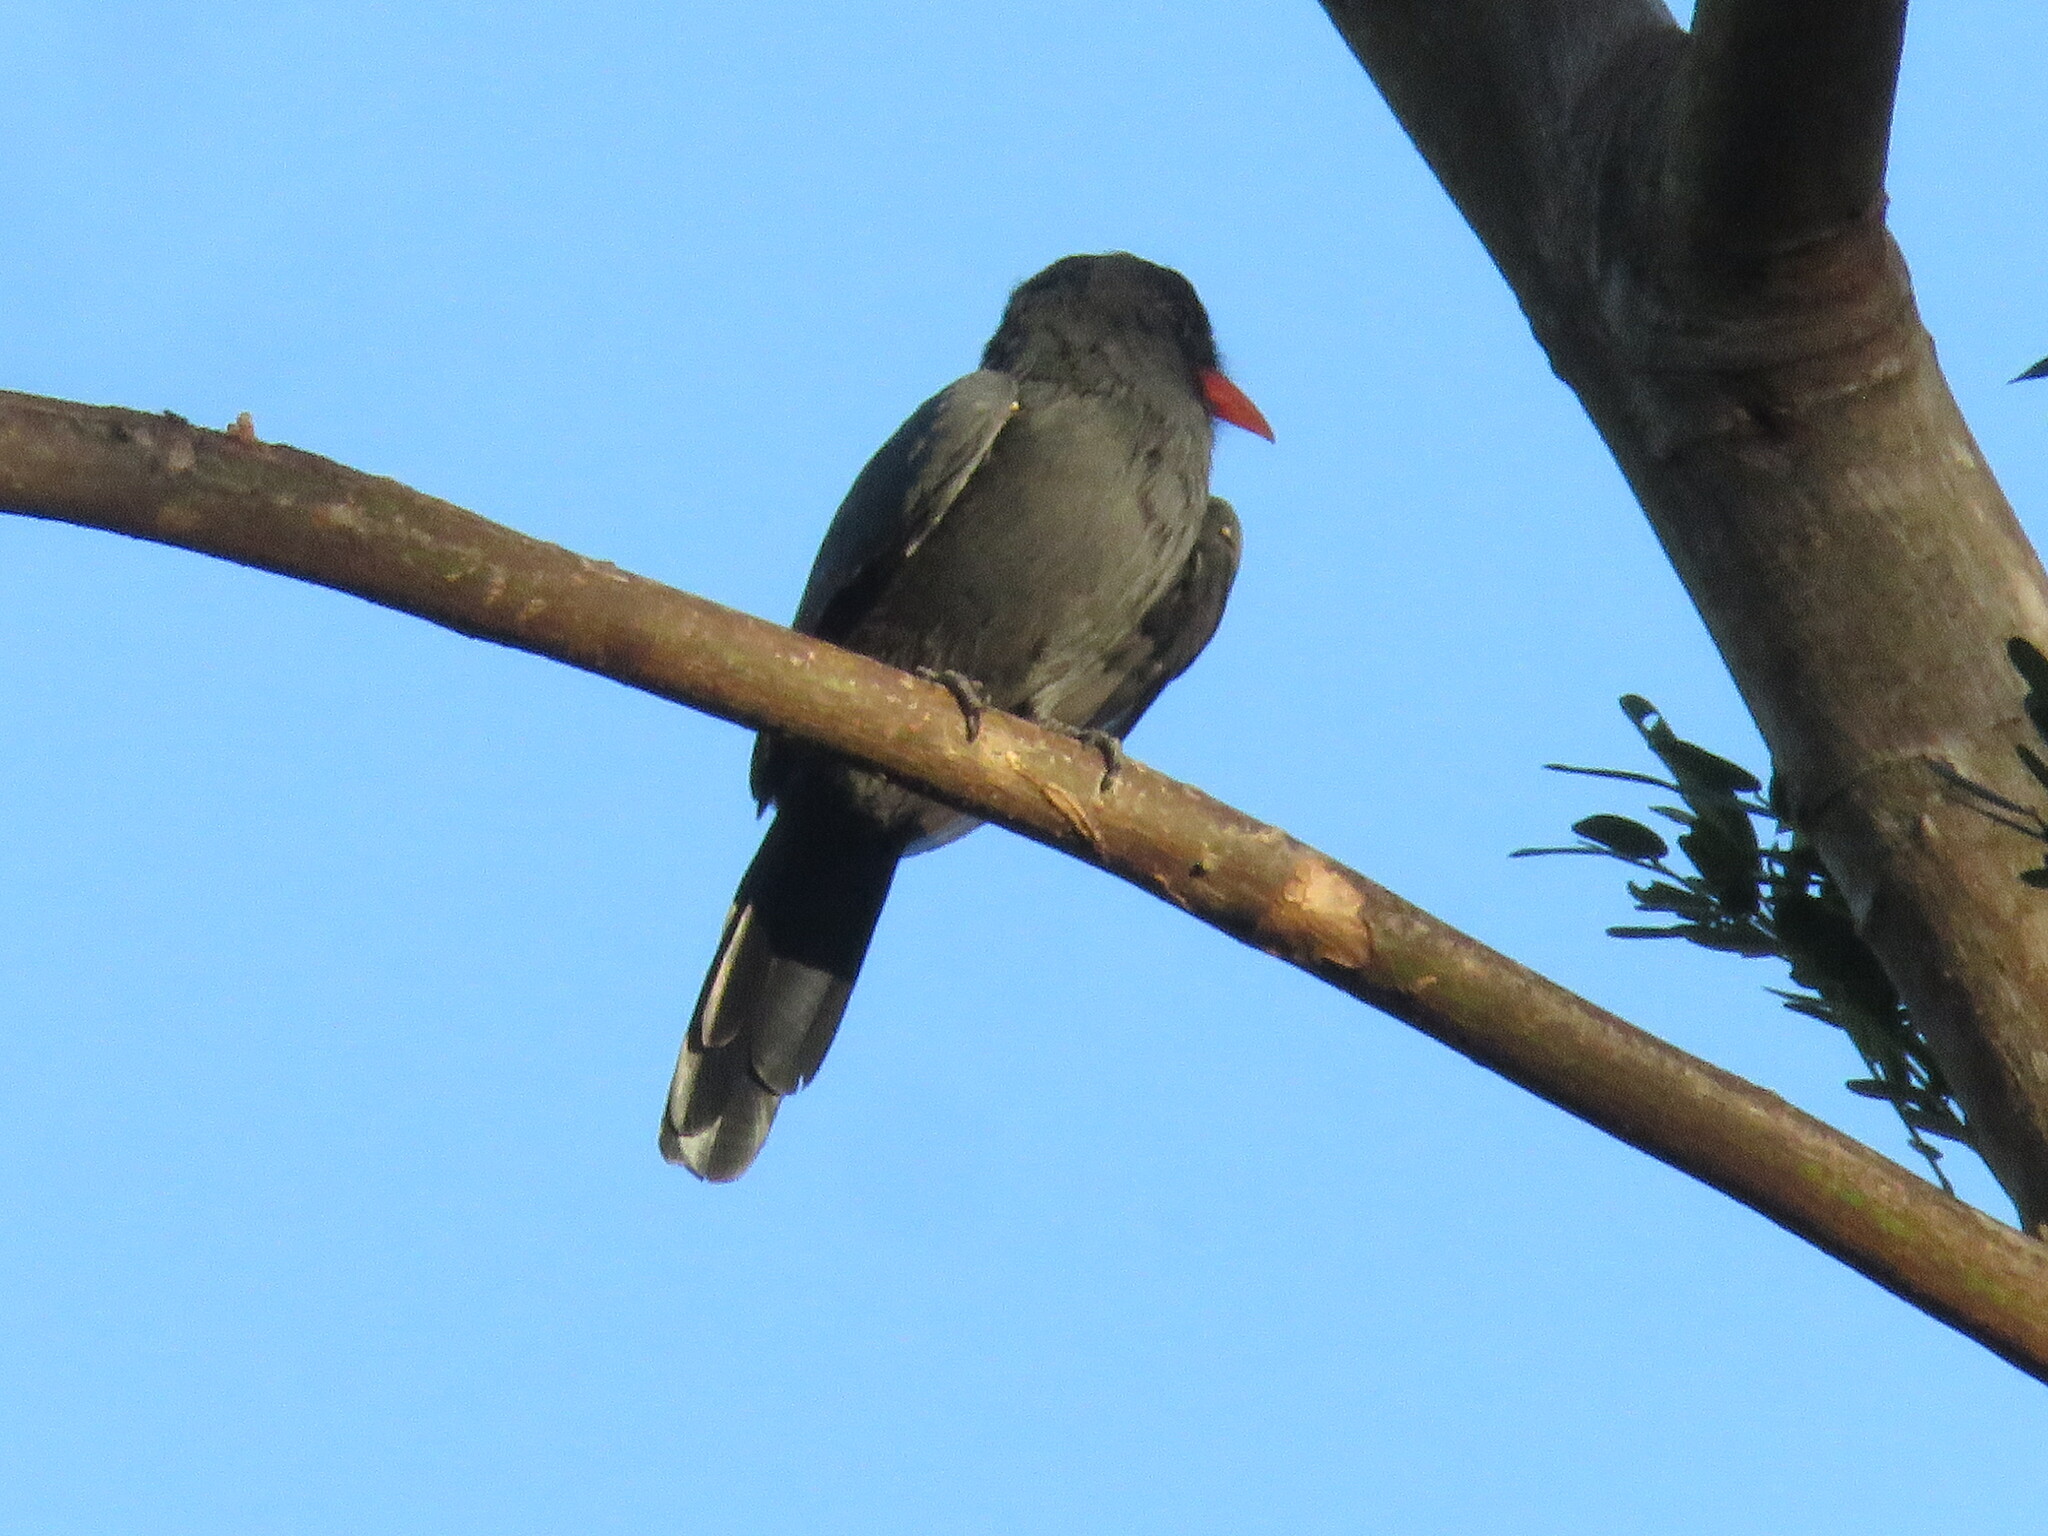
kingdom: Animalia
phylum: Chordata
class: Aves
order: Piciformes
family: Bucconidae
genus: Monasa
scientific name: Monasa nigrifrons
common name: Black-fronted nunbird
